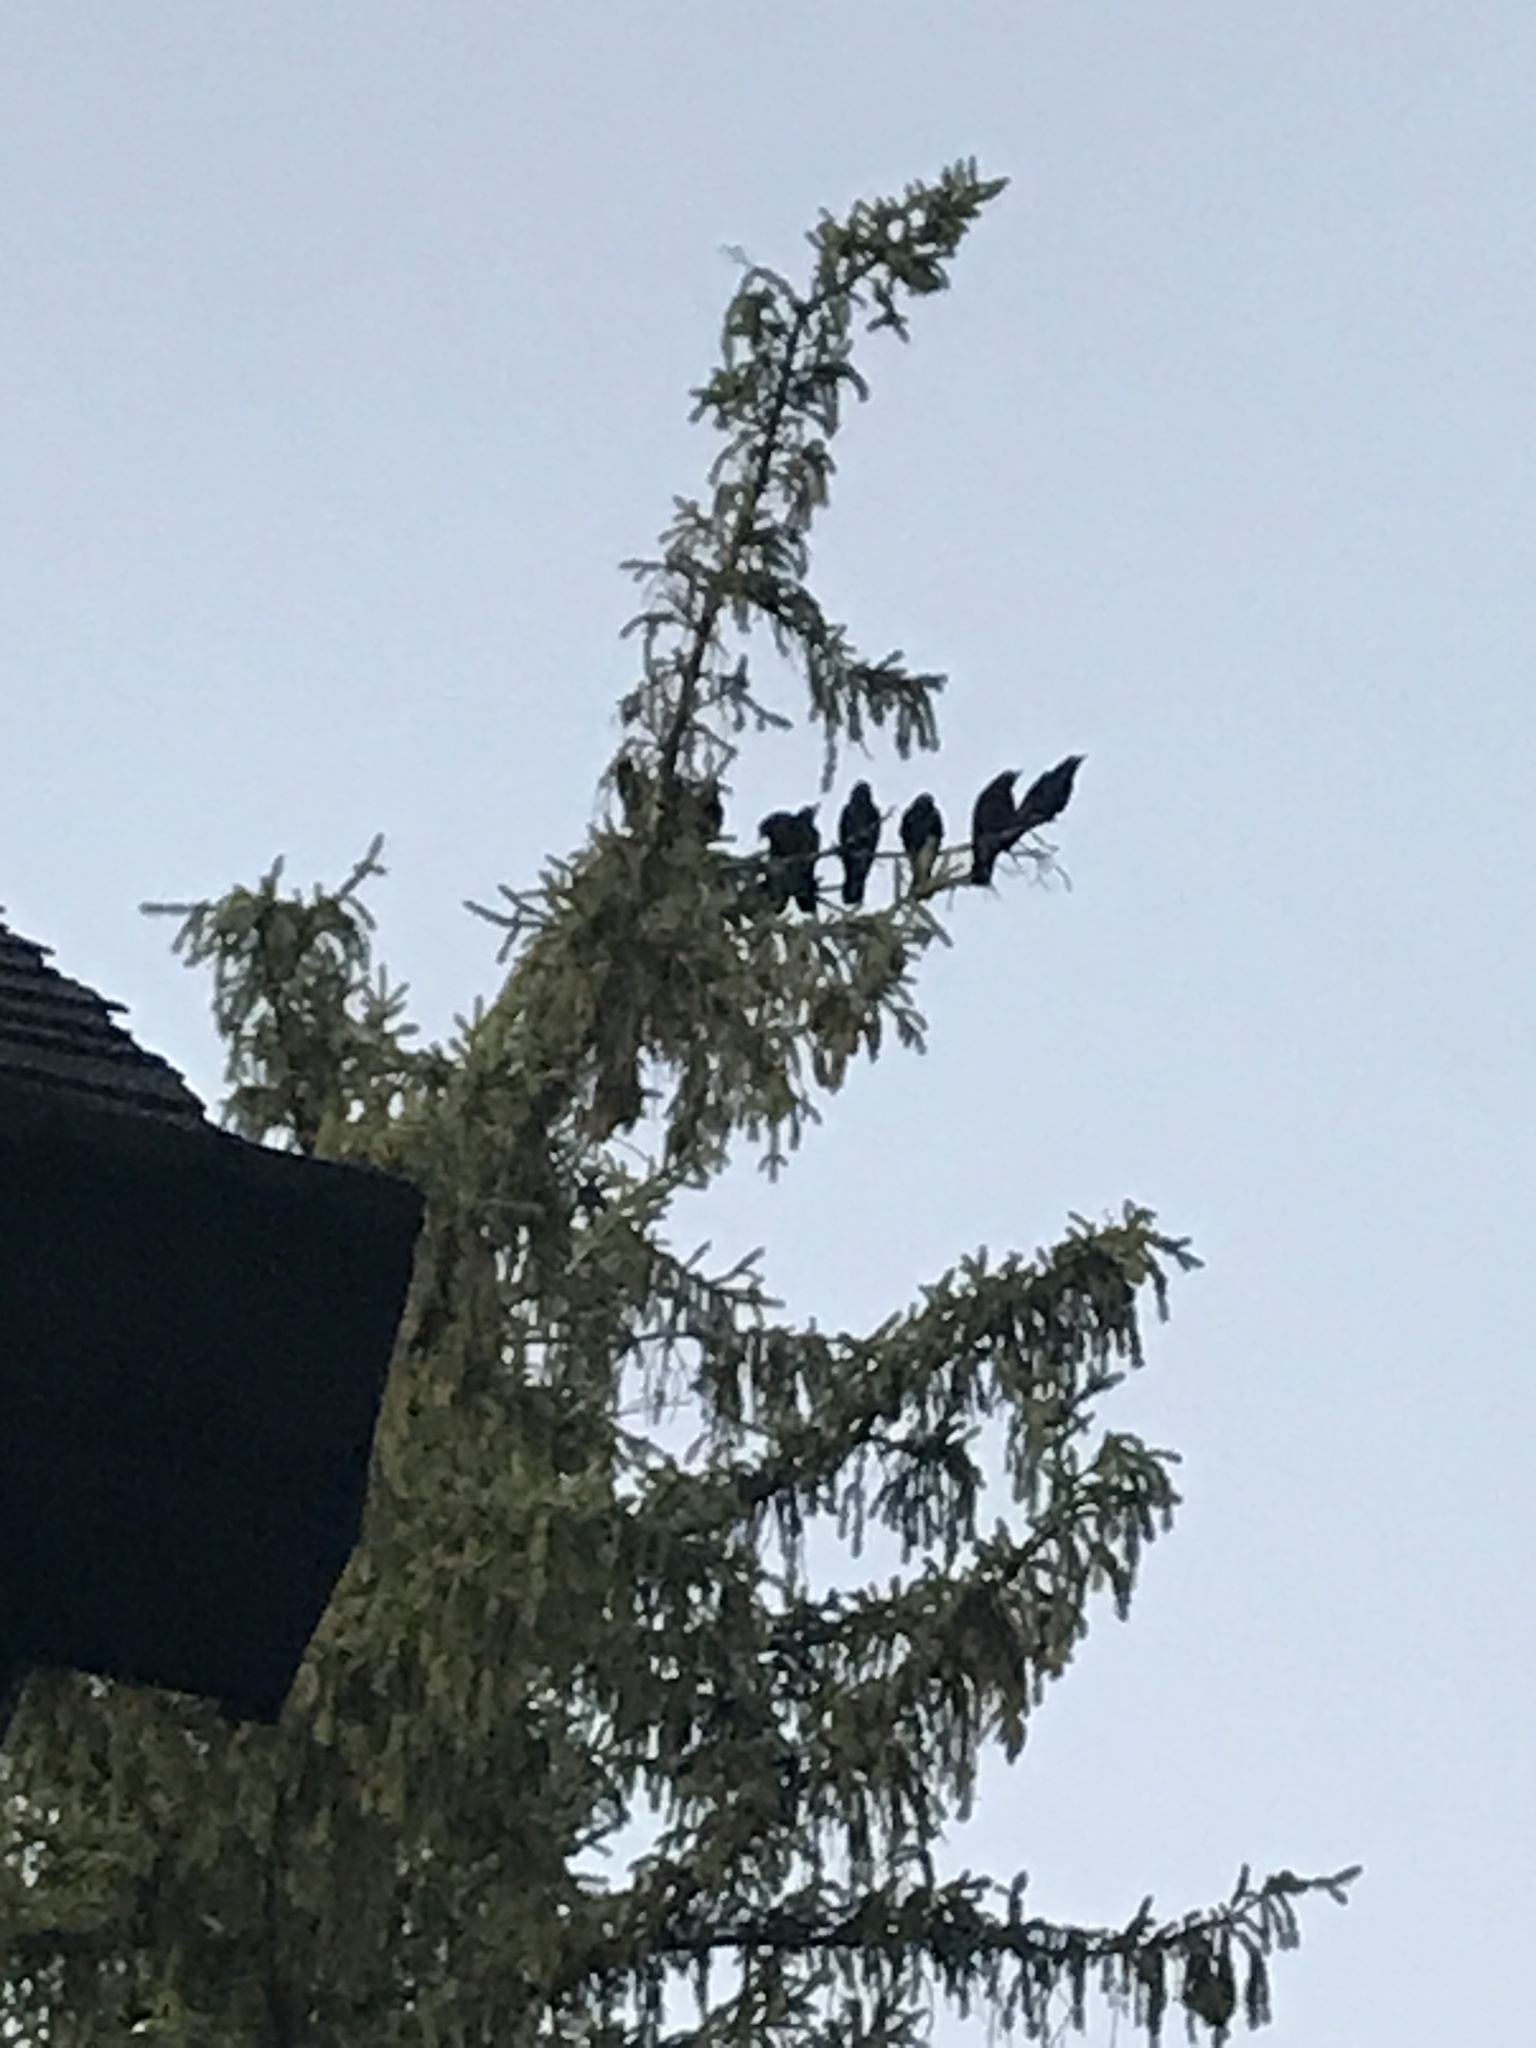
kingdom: Animalia
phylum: Chordata
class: Aves
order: Passeriformes
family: Corvidae
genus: Corvus
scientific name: Corvus brachyrhynchos
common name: American crow
